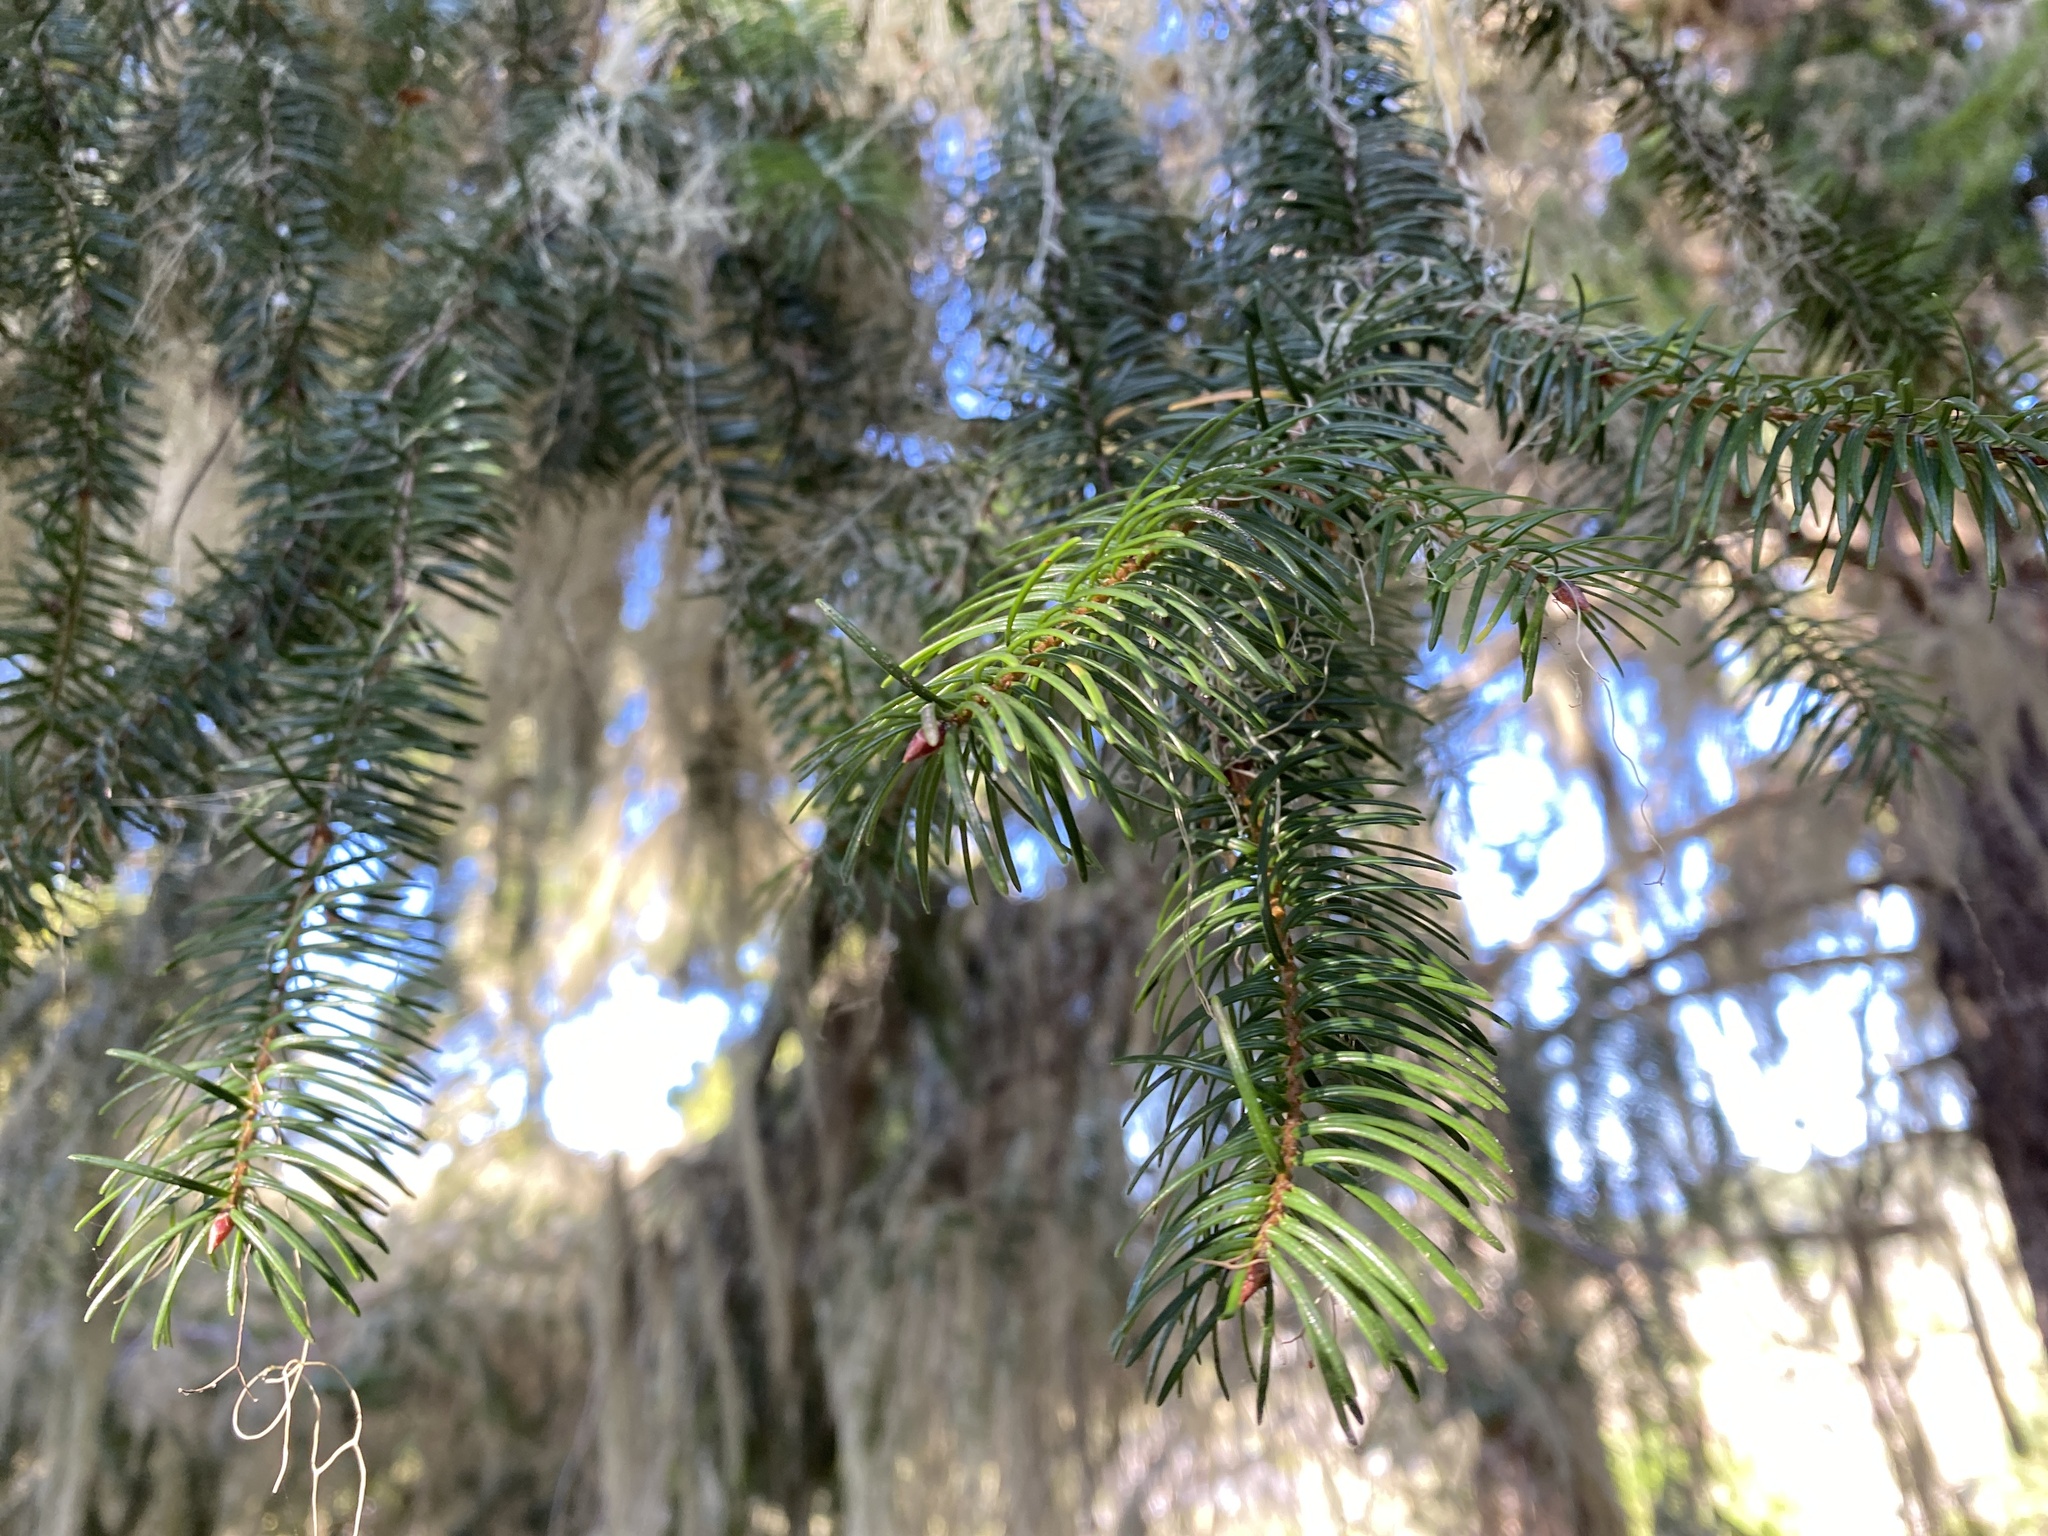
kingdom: Plantae
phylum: Tracheophyta
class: Pinopsida
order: Pinales
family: Pinaceae
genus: Pseudotsuga
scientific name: Pseudotsuga menziesii
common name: Douglas fir
